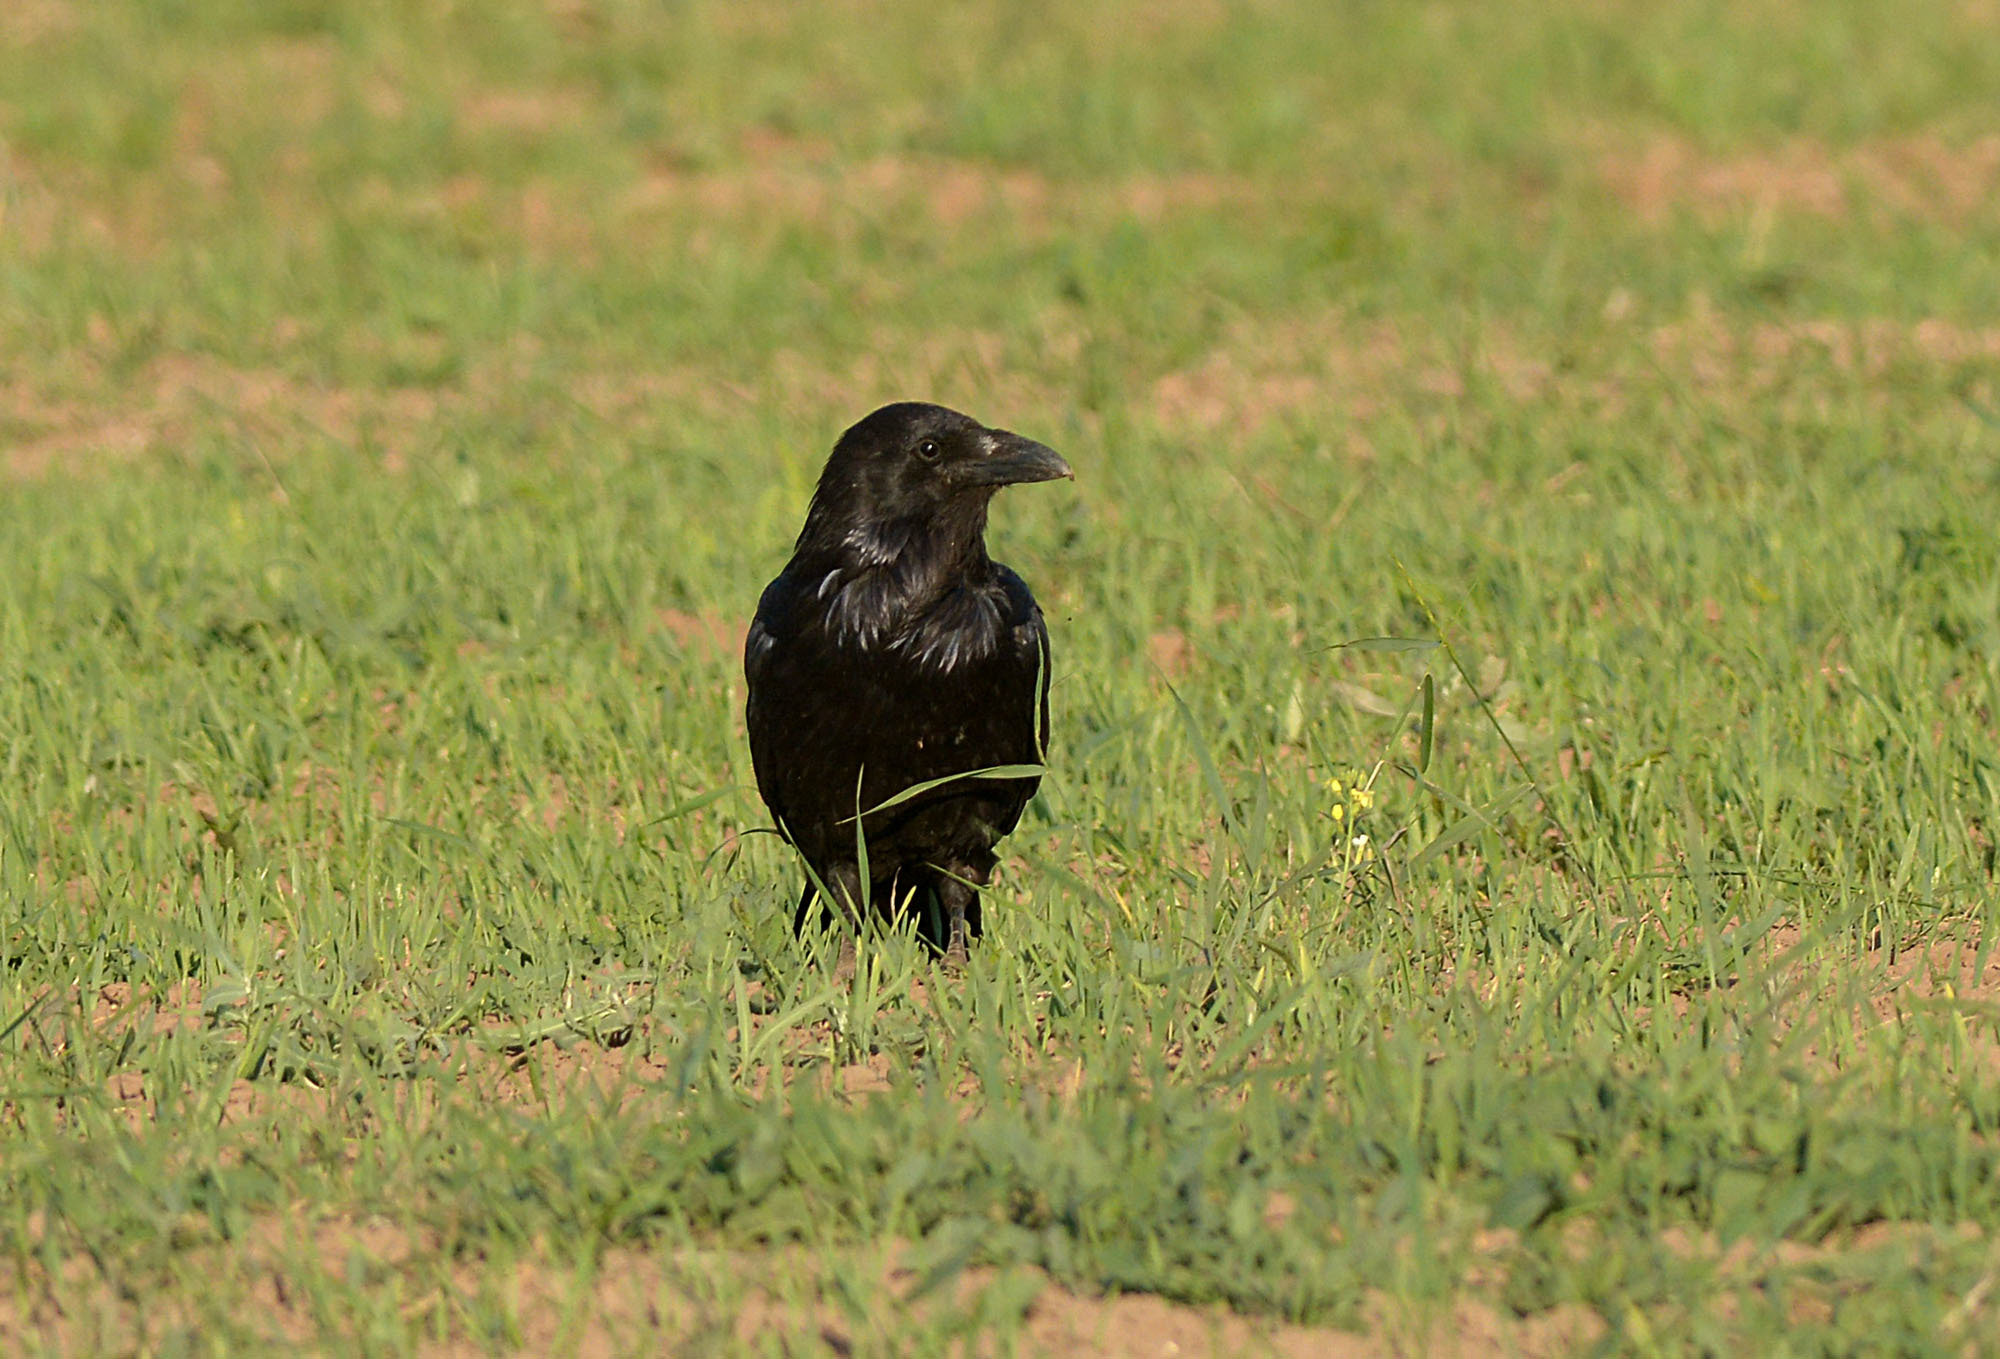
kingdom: Animalia
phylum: Chordata
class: Aves
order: Passeriformes
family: Corvidae
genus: Corvus
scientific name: Corvus corax
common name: Common raven
